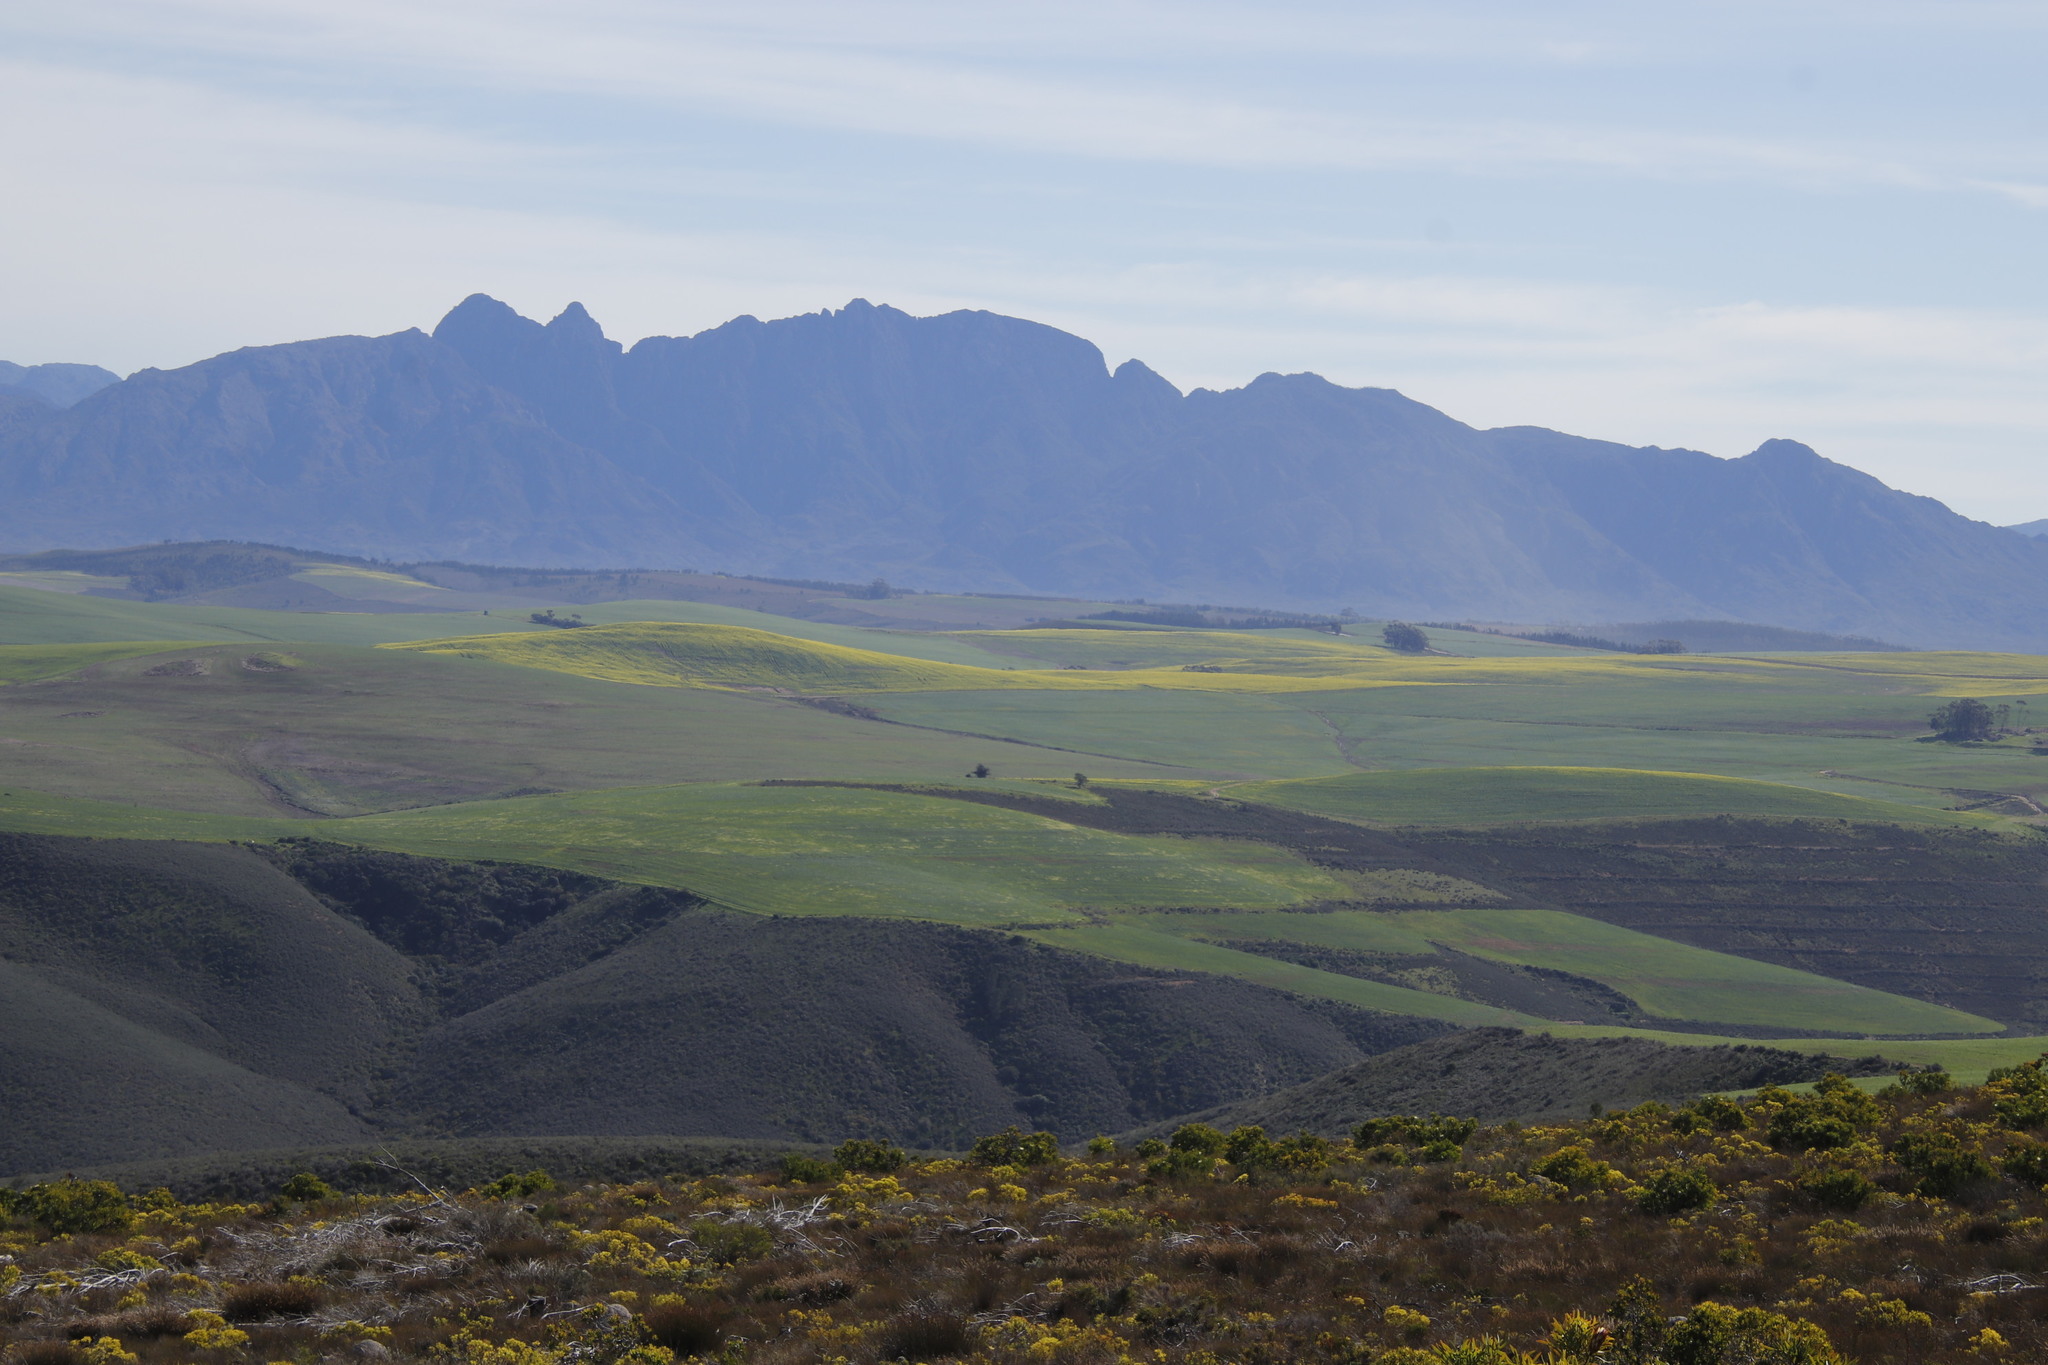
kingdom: Plantae
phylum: Tracheophyta
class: Magnoliopsida
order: Brassicales
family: Brassicaceae
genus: Brassica
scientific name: Brassica napus
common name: Rape
